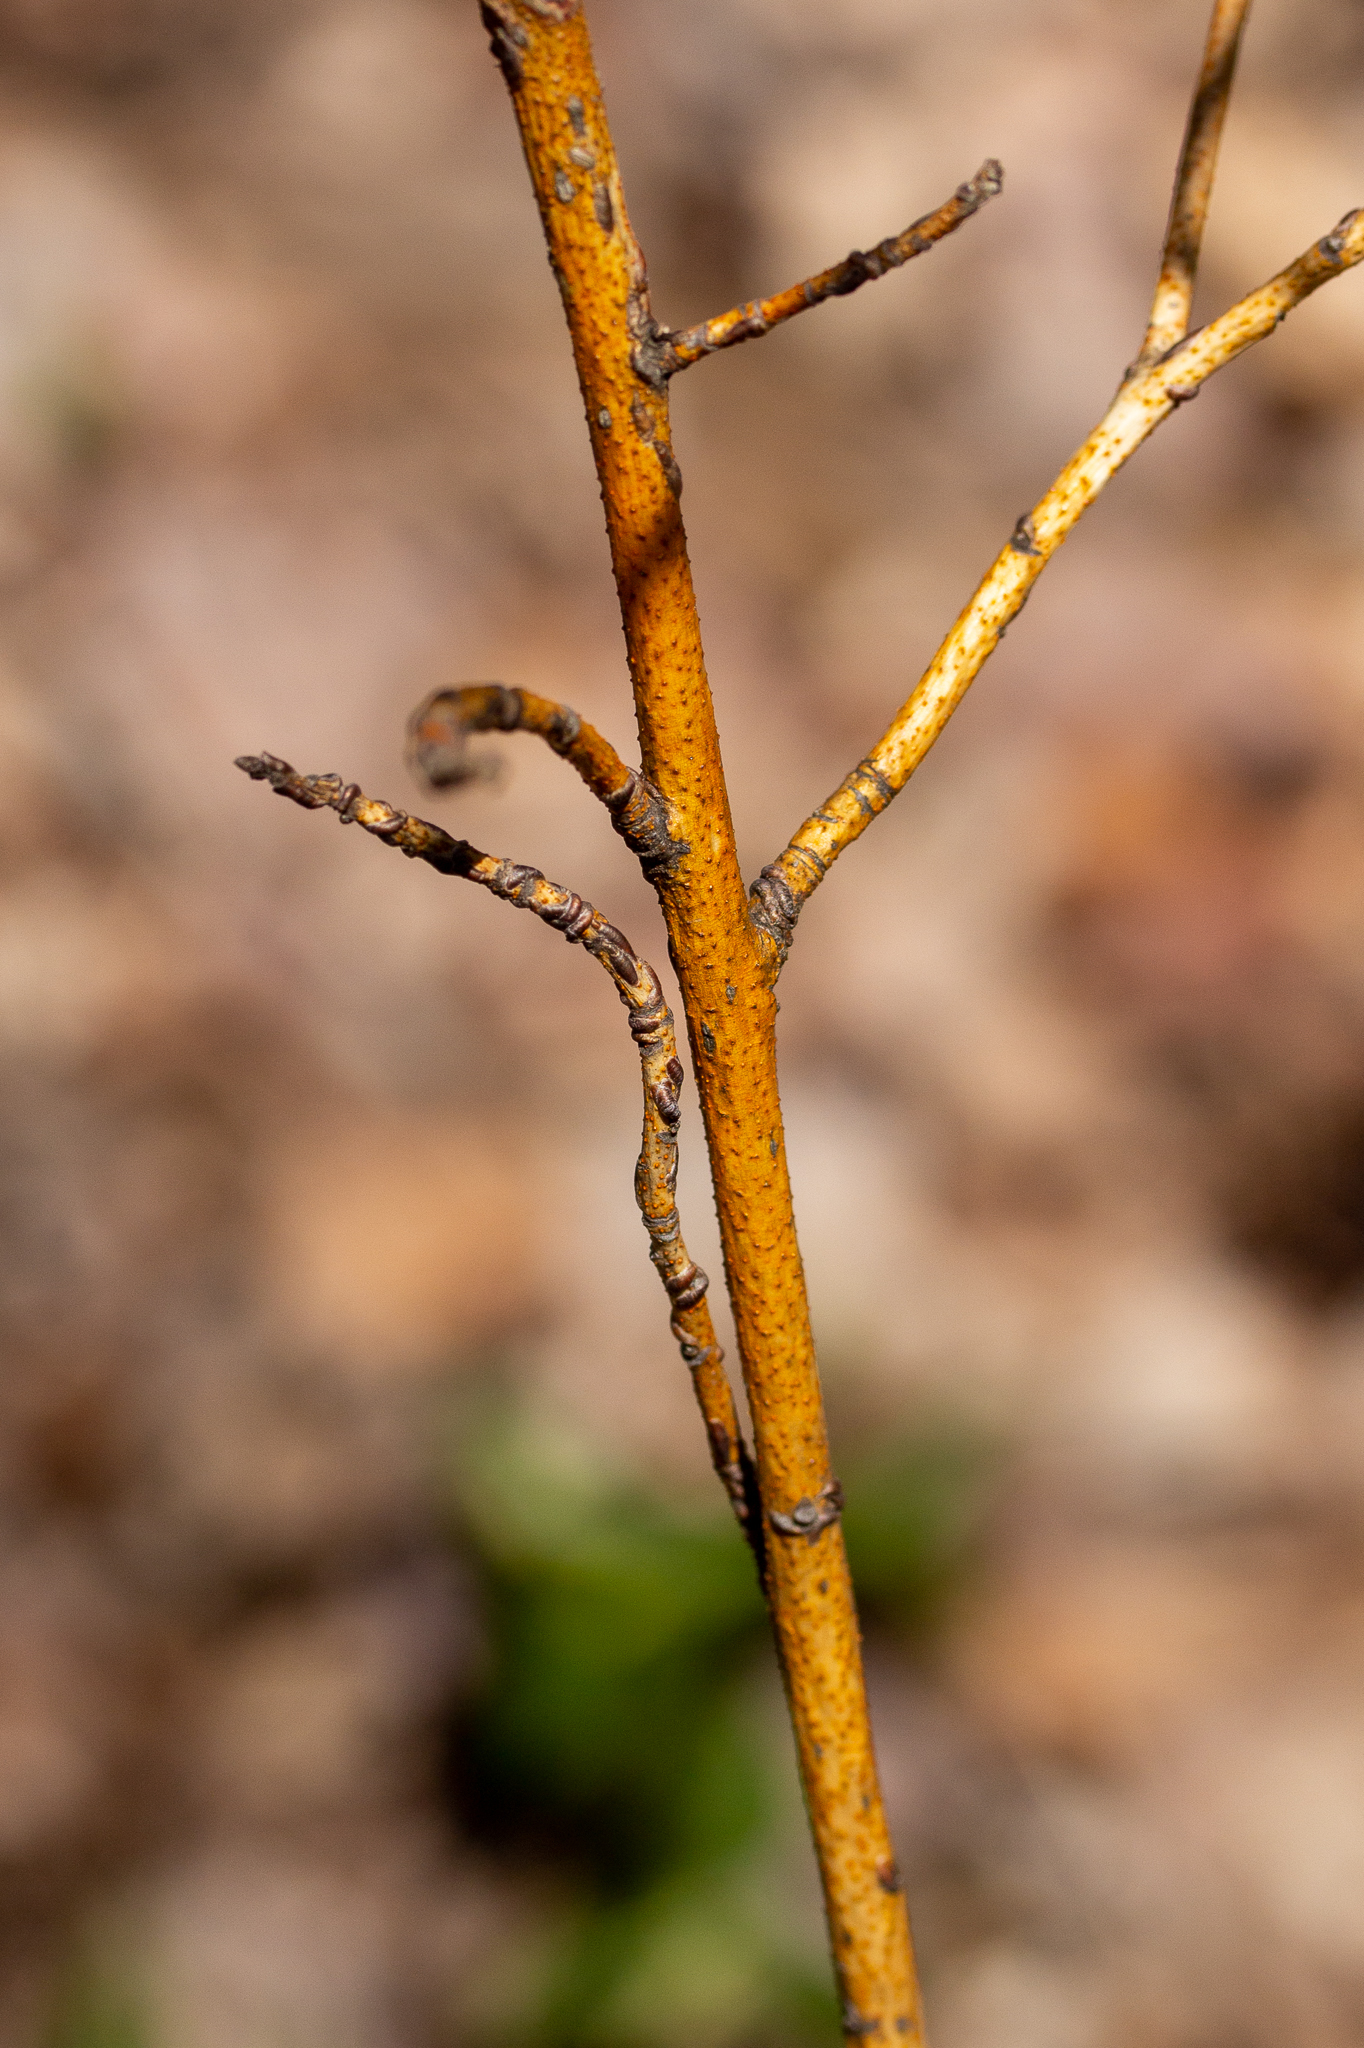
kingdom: Fungi
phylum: Ascomycota
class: Sordariomycetes
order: Diaporthales
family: Cryphonectriaceae
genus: Aurantioporthe
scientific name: Aurantioporthe corni
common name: Dogwood golden canker
